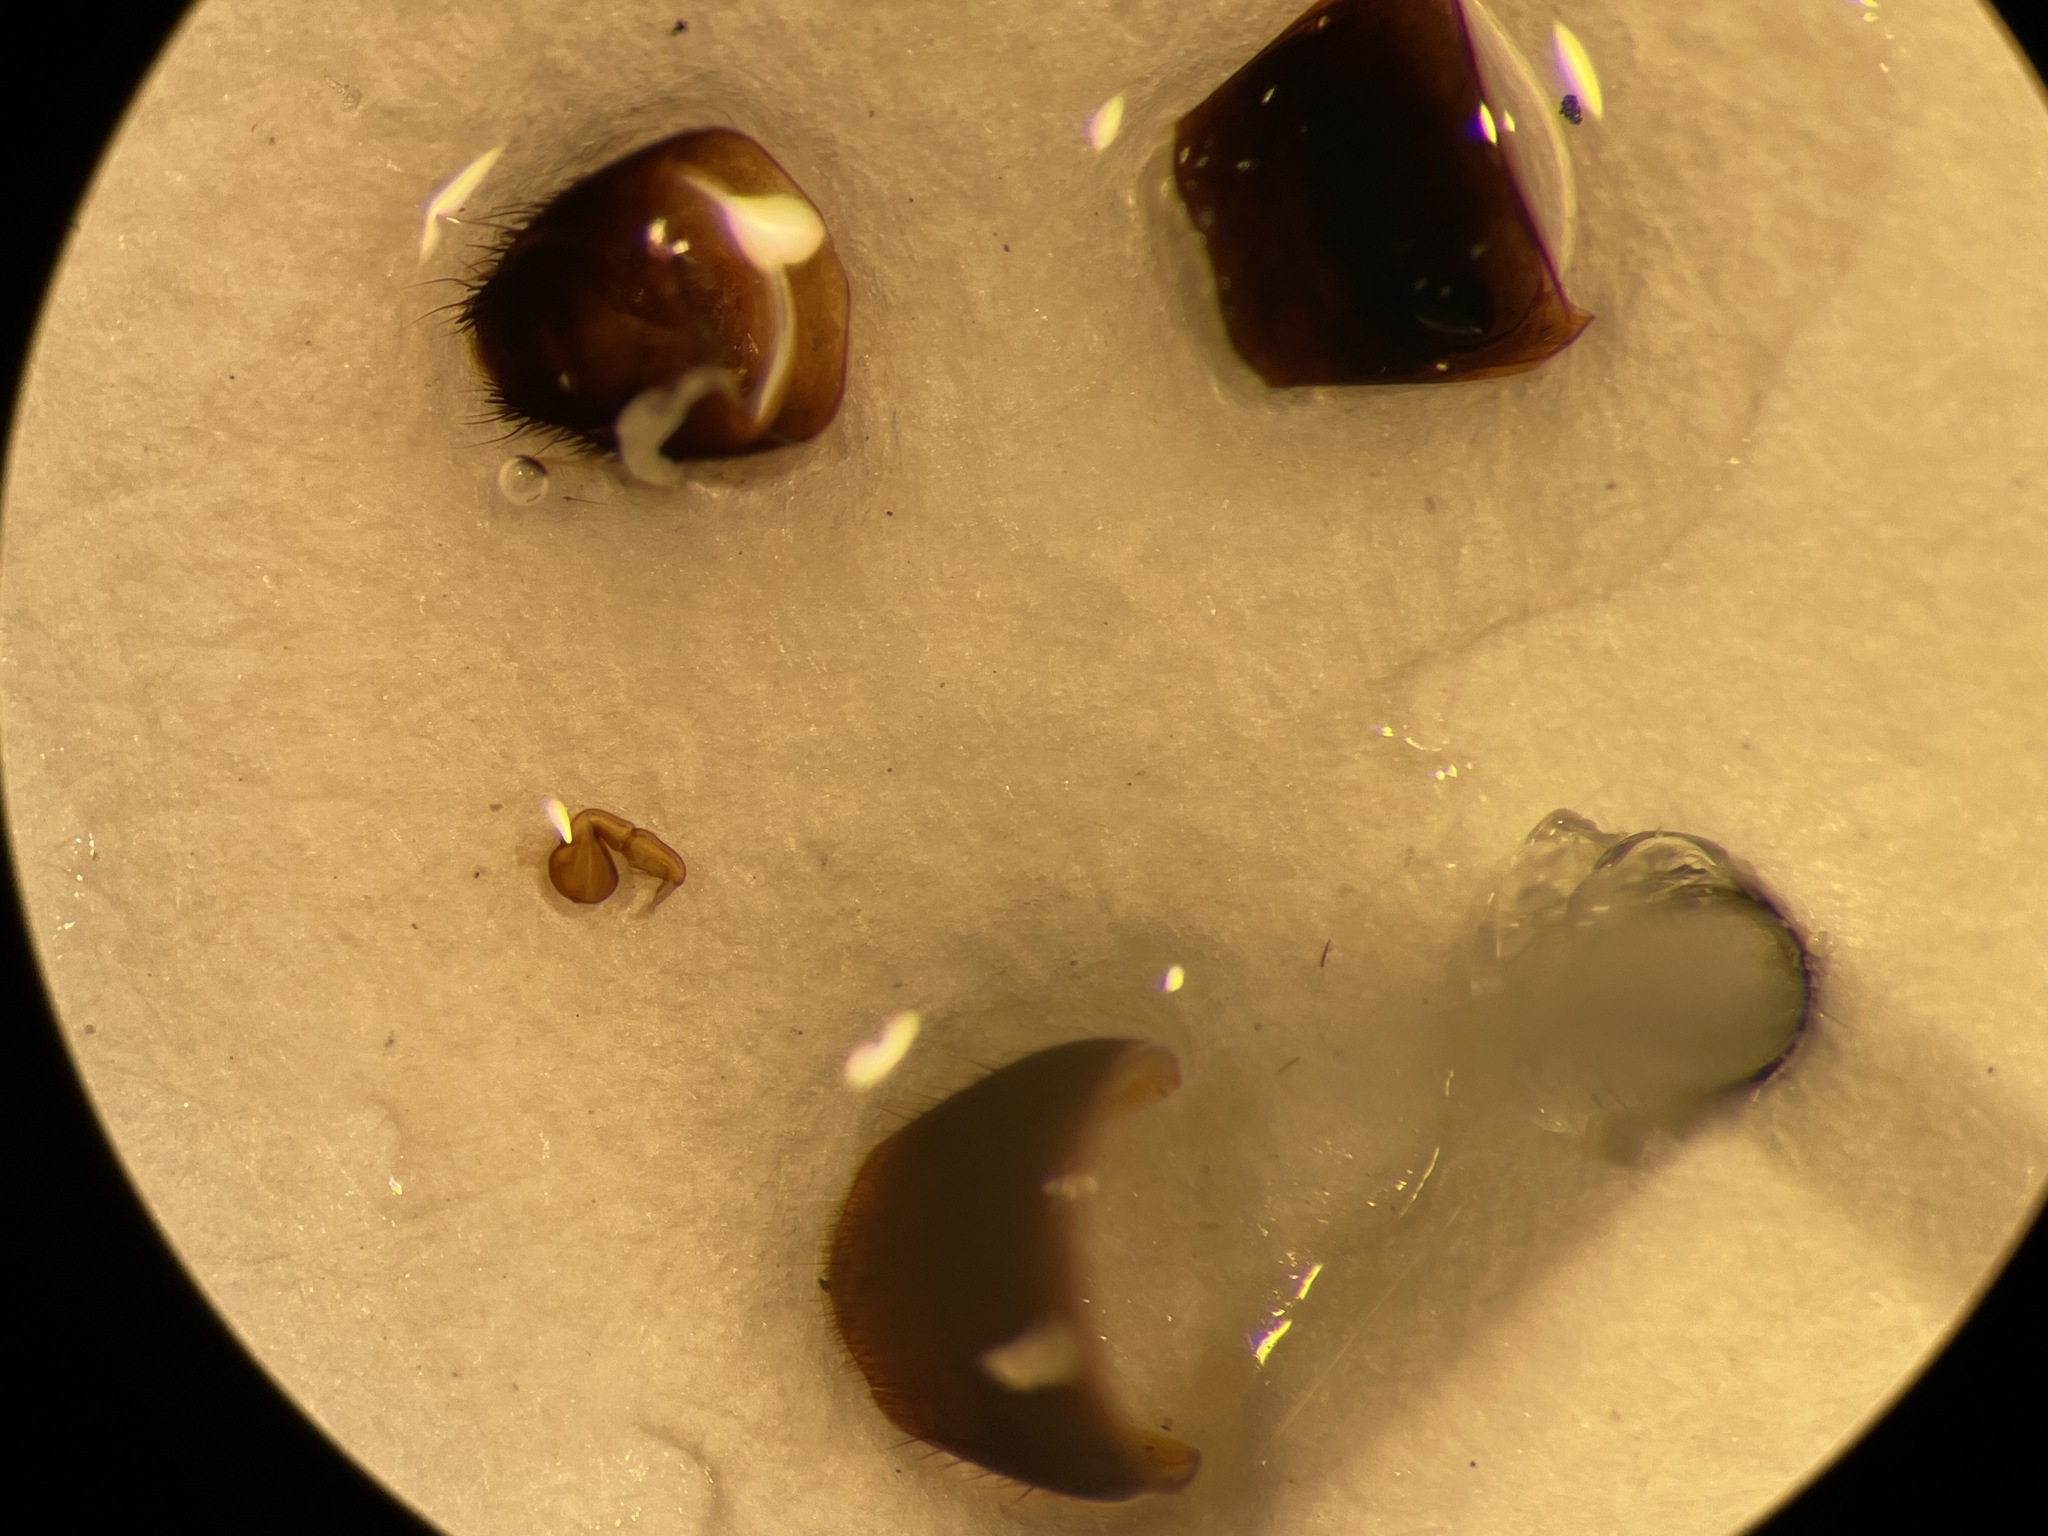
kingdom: Animalia
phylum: Arthropoda
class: Insecta
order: Coleoptera
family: Staphylinidae
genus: Aleochara
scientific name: Aleochara speculicollis
